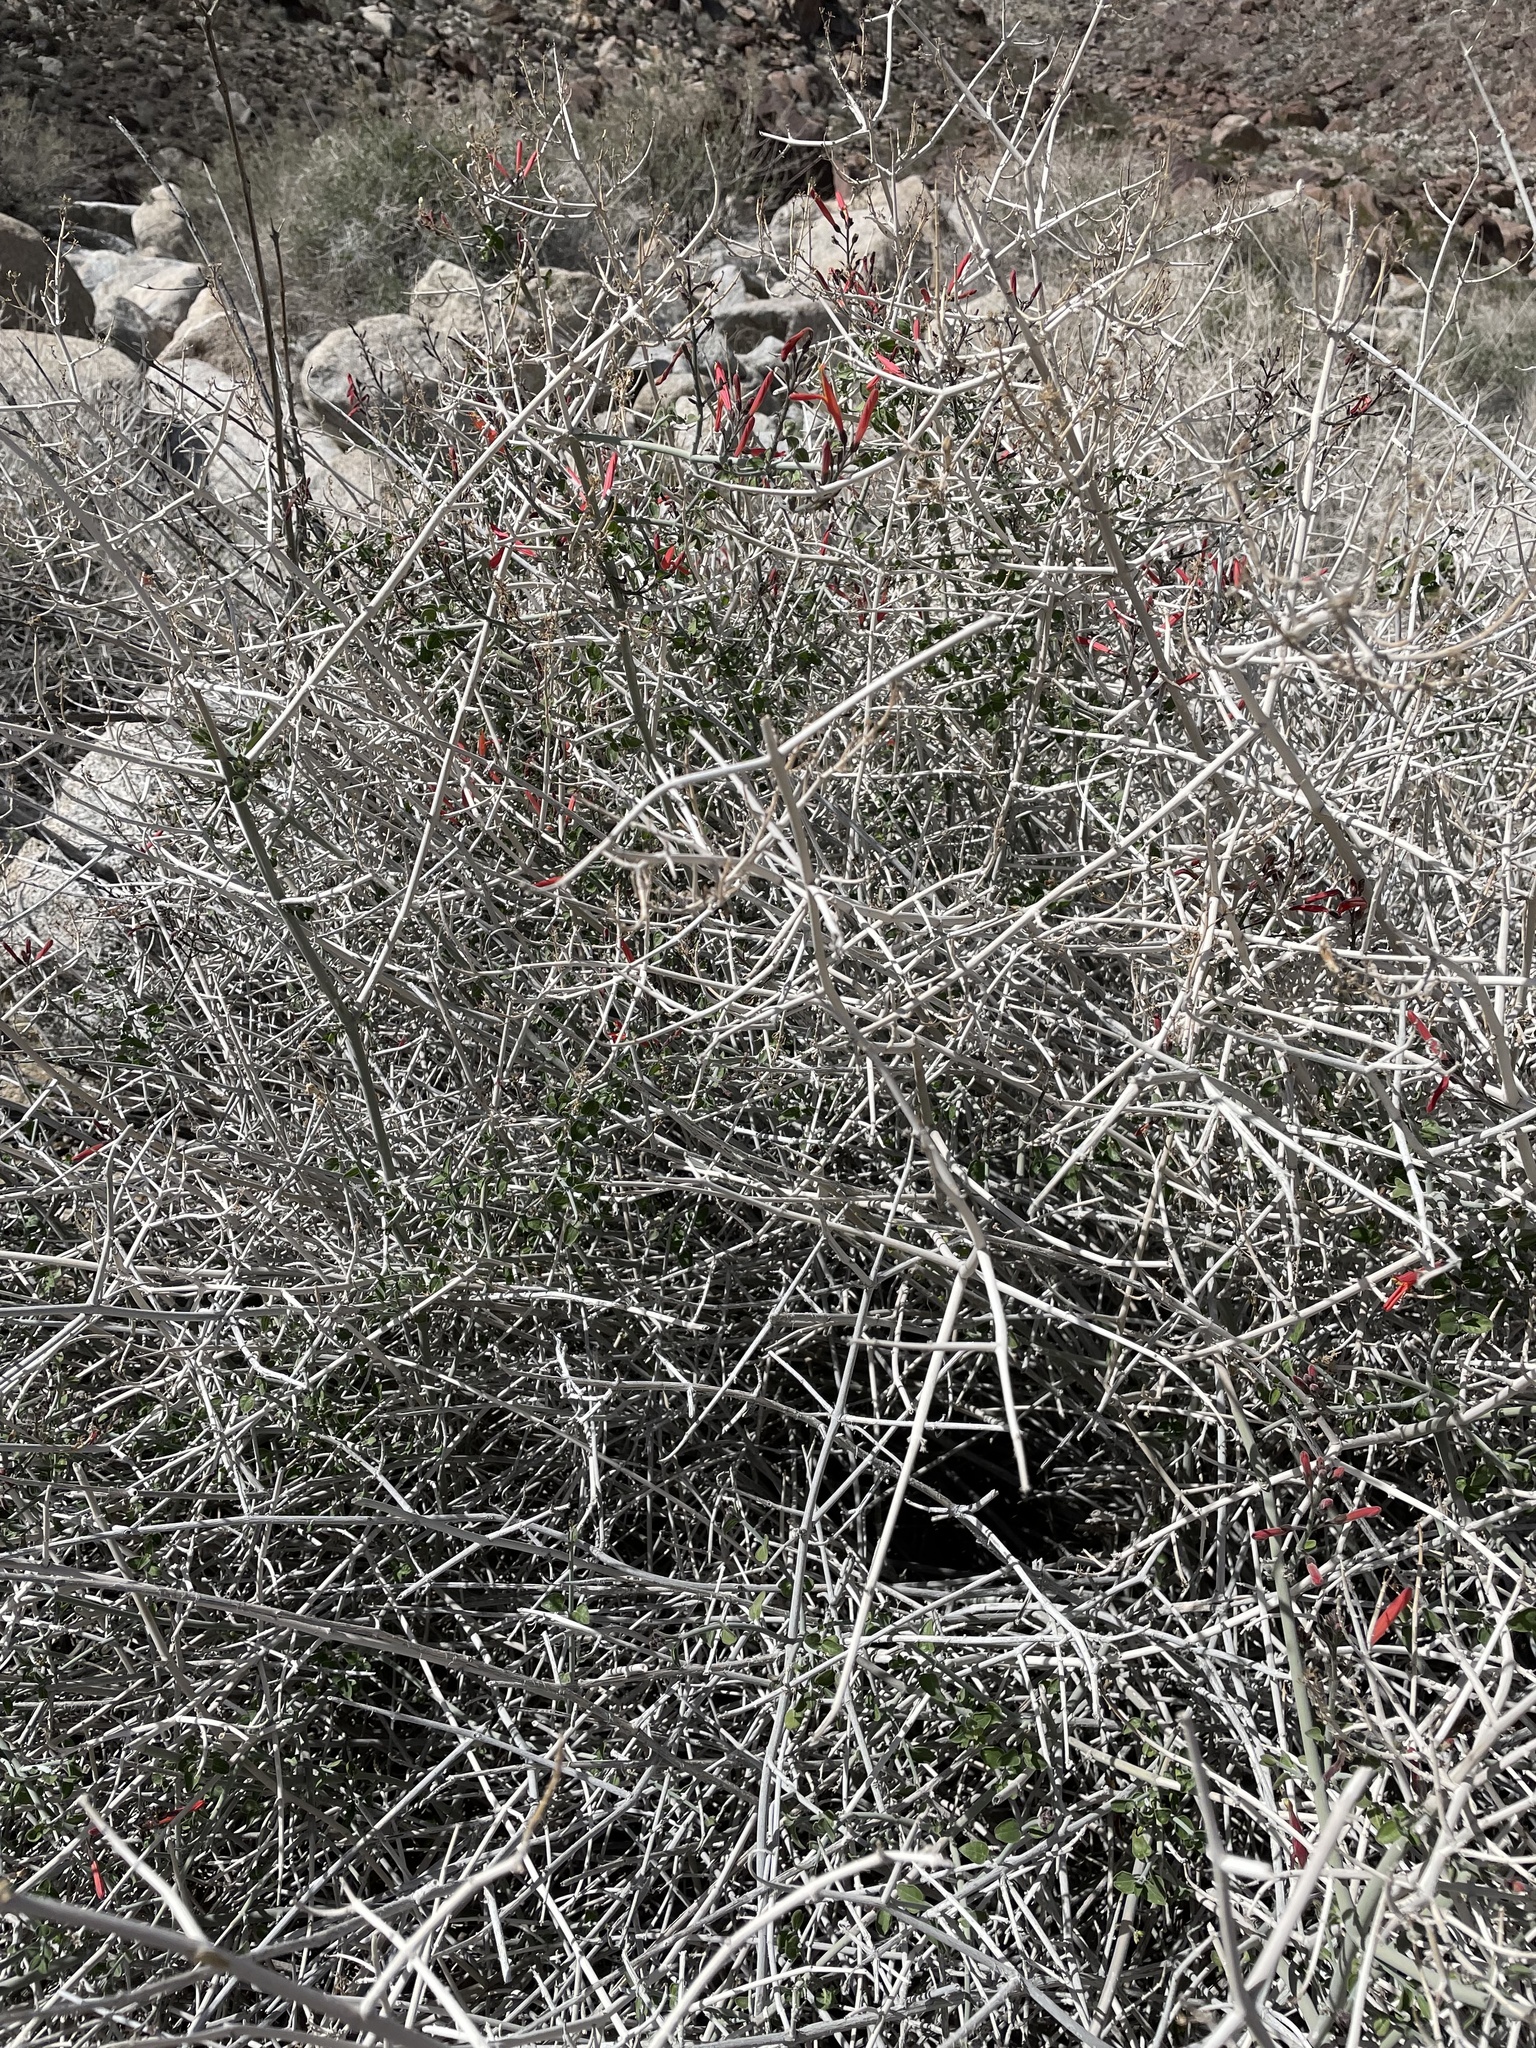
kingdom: Plantae
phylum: Tracheophyta
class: Magnoliopsida
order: Lamiales
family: Acanthaceae
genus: Justicia
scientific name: Justicia californica
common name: Chuparosa-honeysuckle
